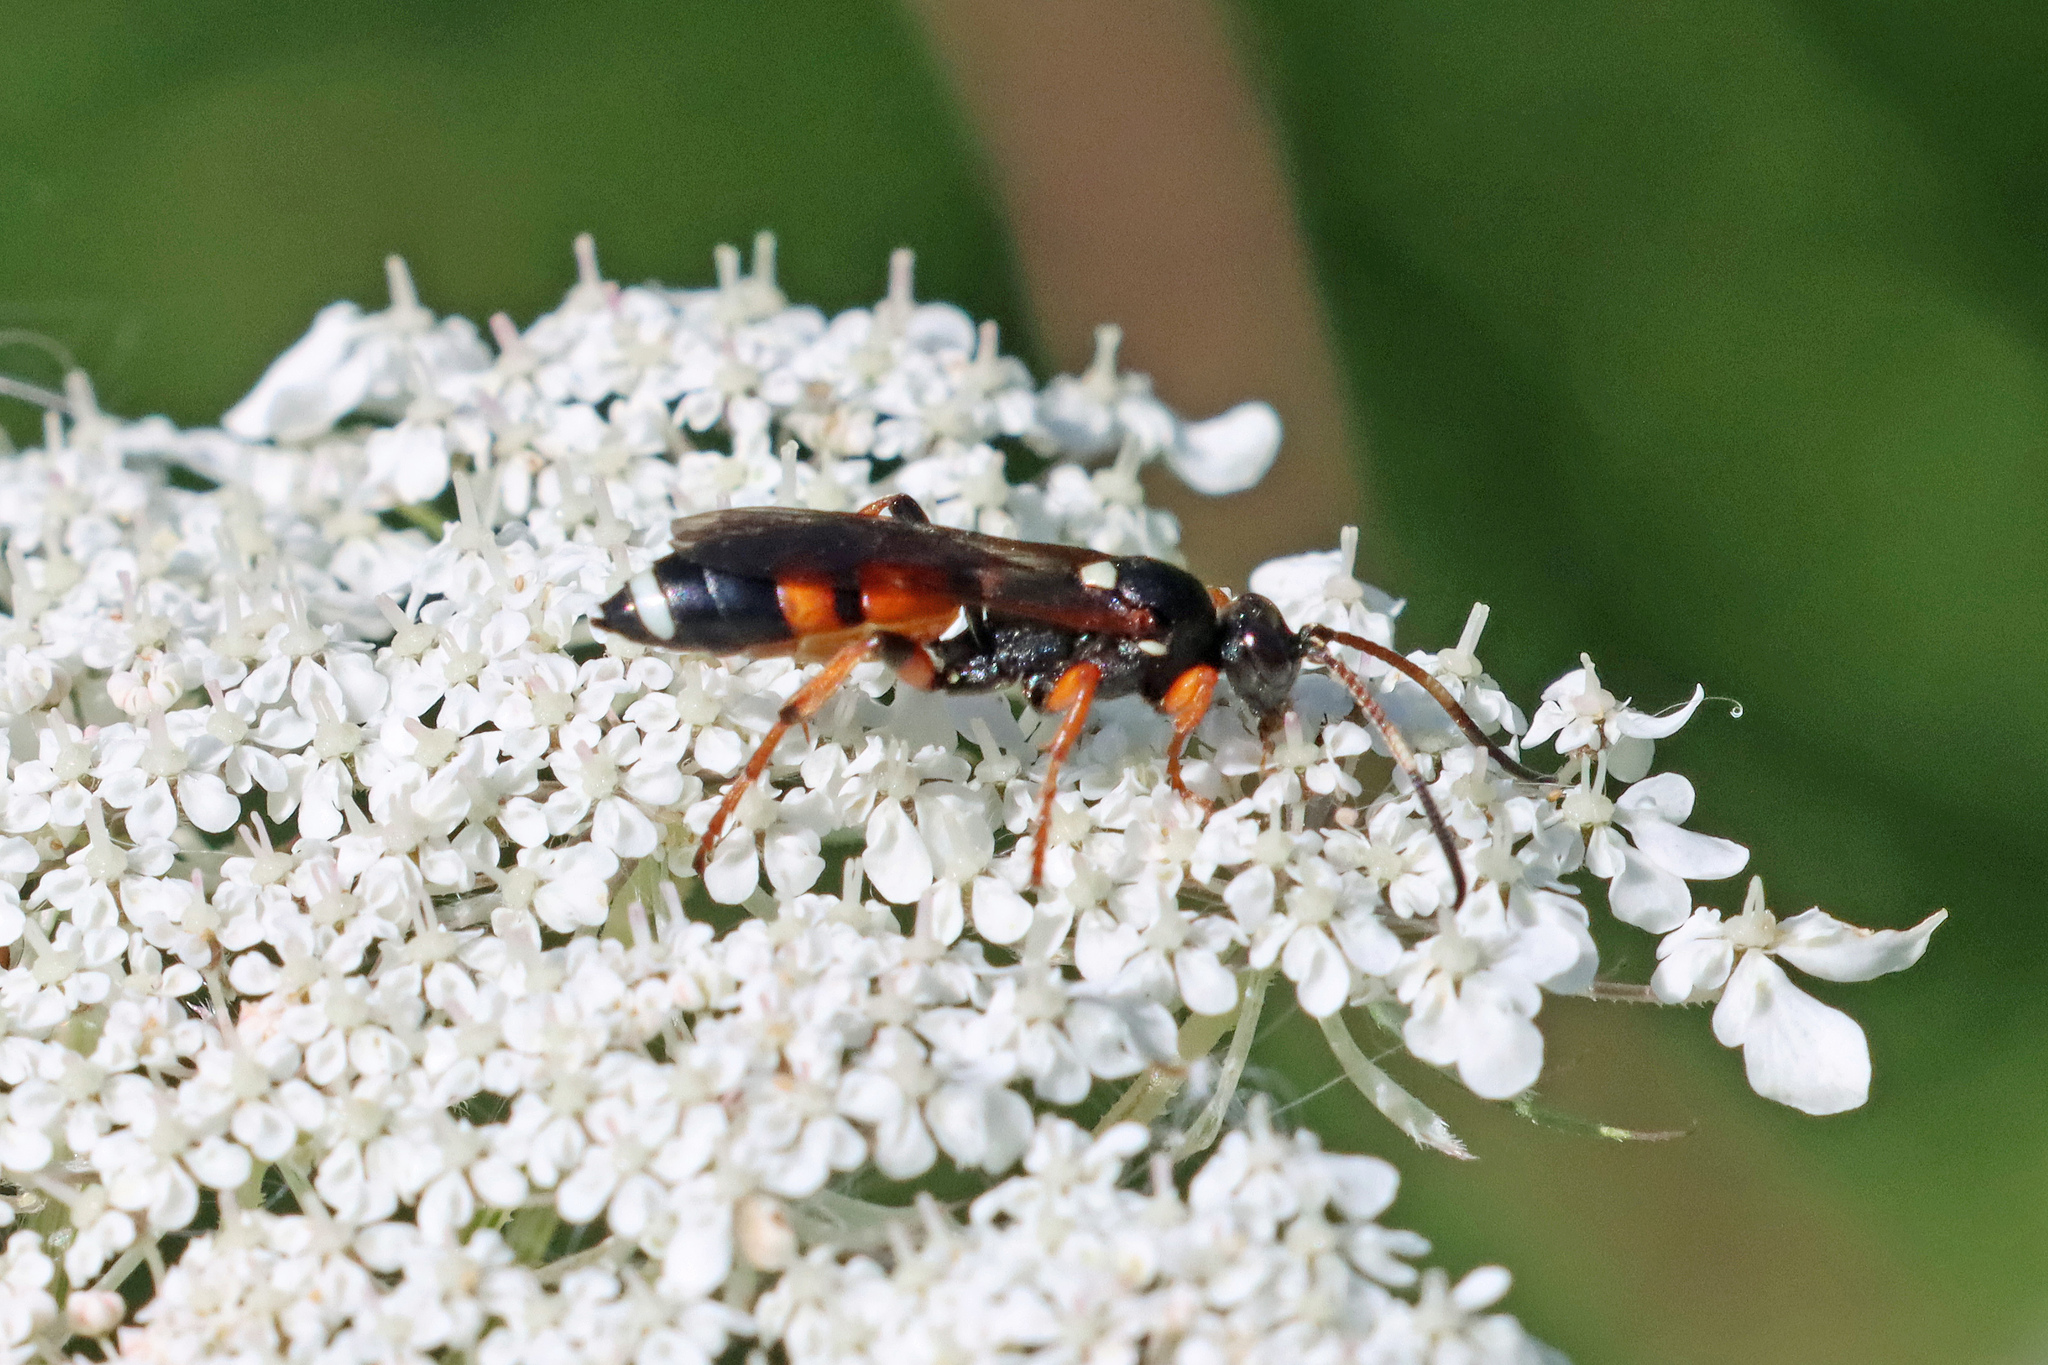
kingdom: Animalia
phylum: Arthropoda
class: Insecta
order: Hymenoptera
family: Ichneumonidae
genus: Ichneumon
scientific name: Ichneumon sarcitorius
